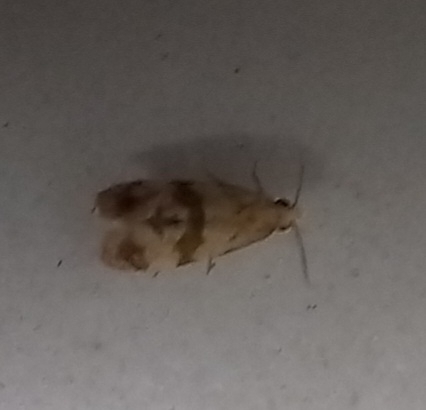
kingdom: Animalia
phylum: Arthropoda
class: Insecta
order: Lepidoptera
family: Tortricidae
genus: Phalonidia
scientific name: Phalonidia contractana
